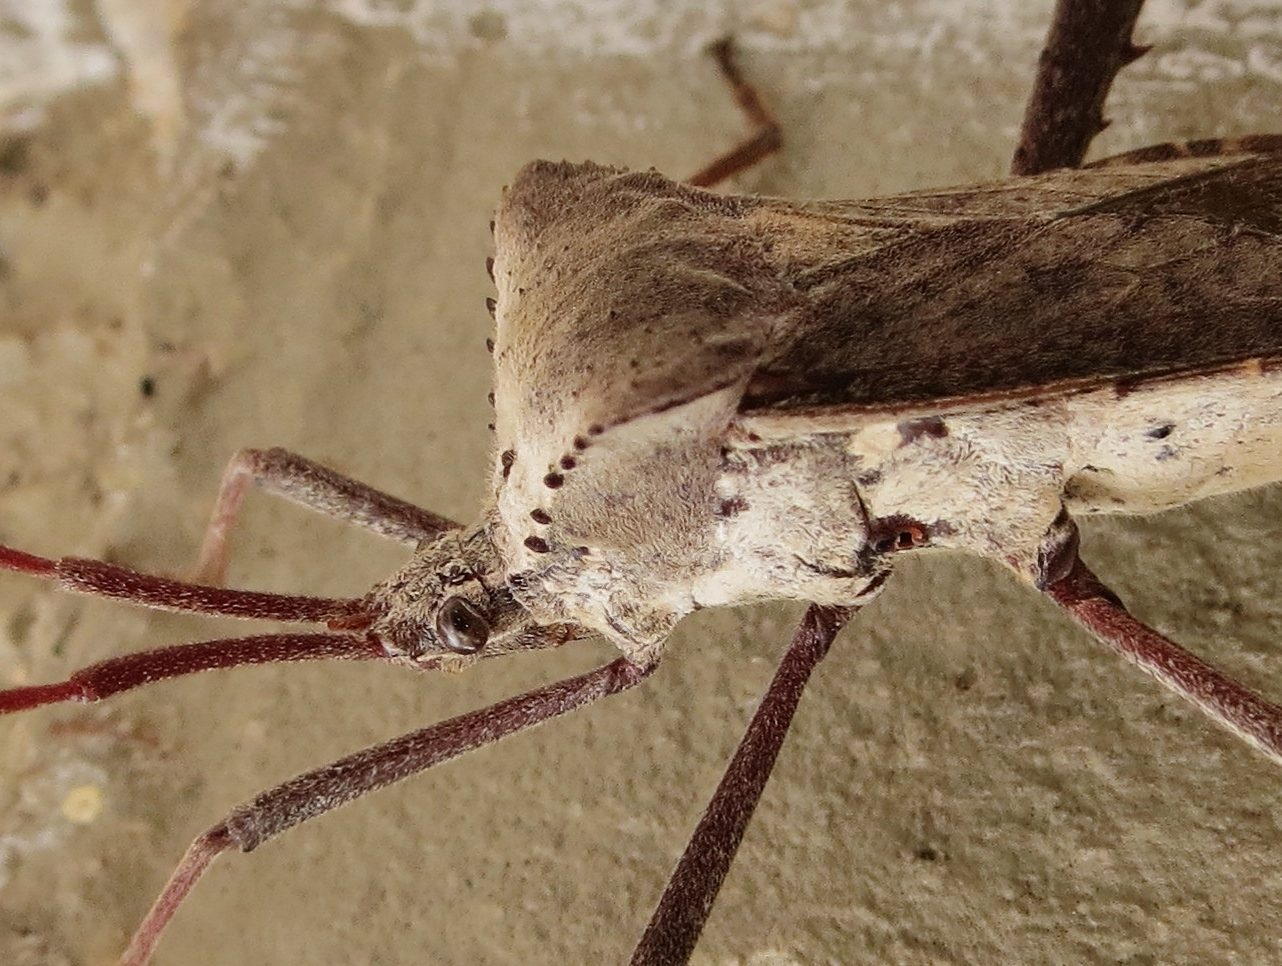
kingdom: Animalia
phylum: Arthropoda
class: Insecta
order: Hemiptera
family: Coreidae
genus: Acanthocephala
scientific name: Acanthocephala declivis
